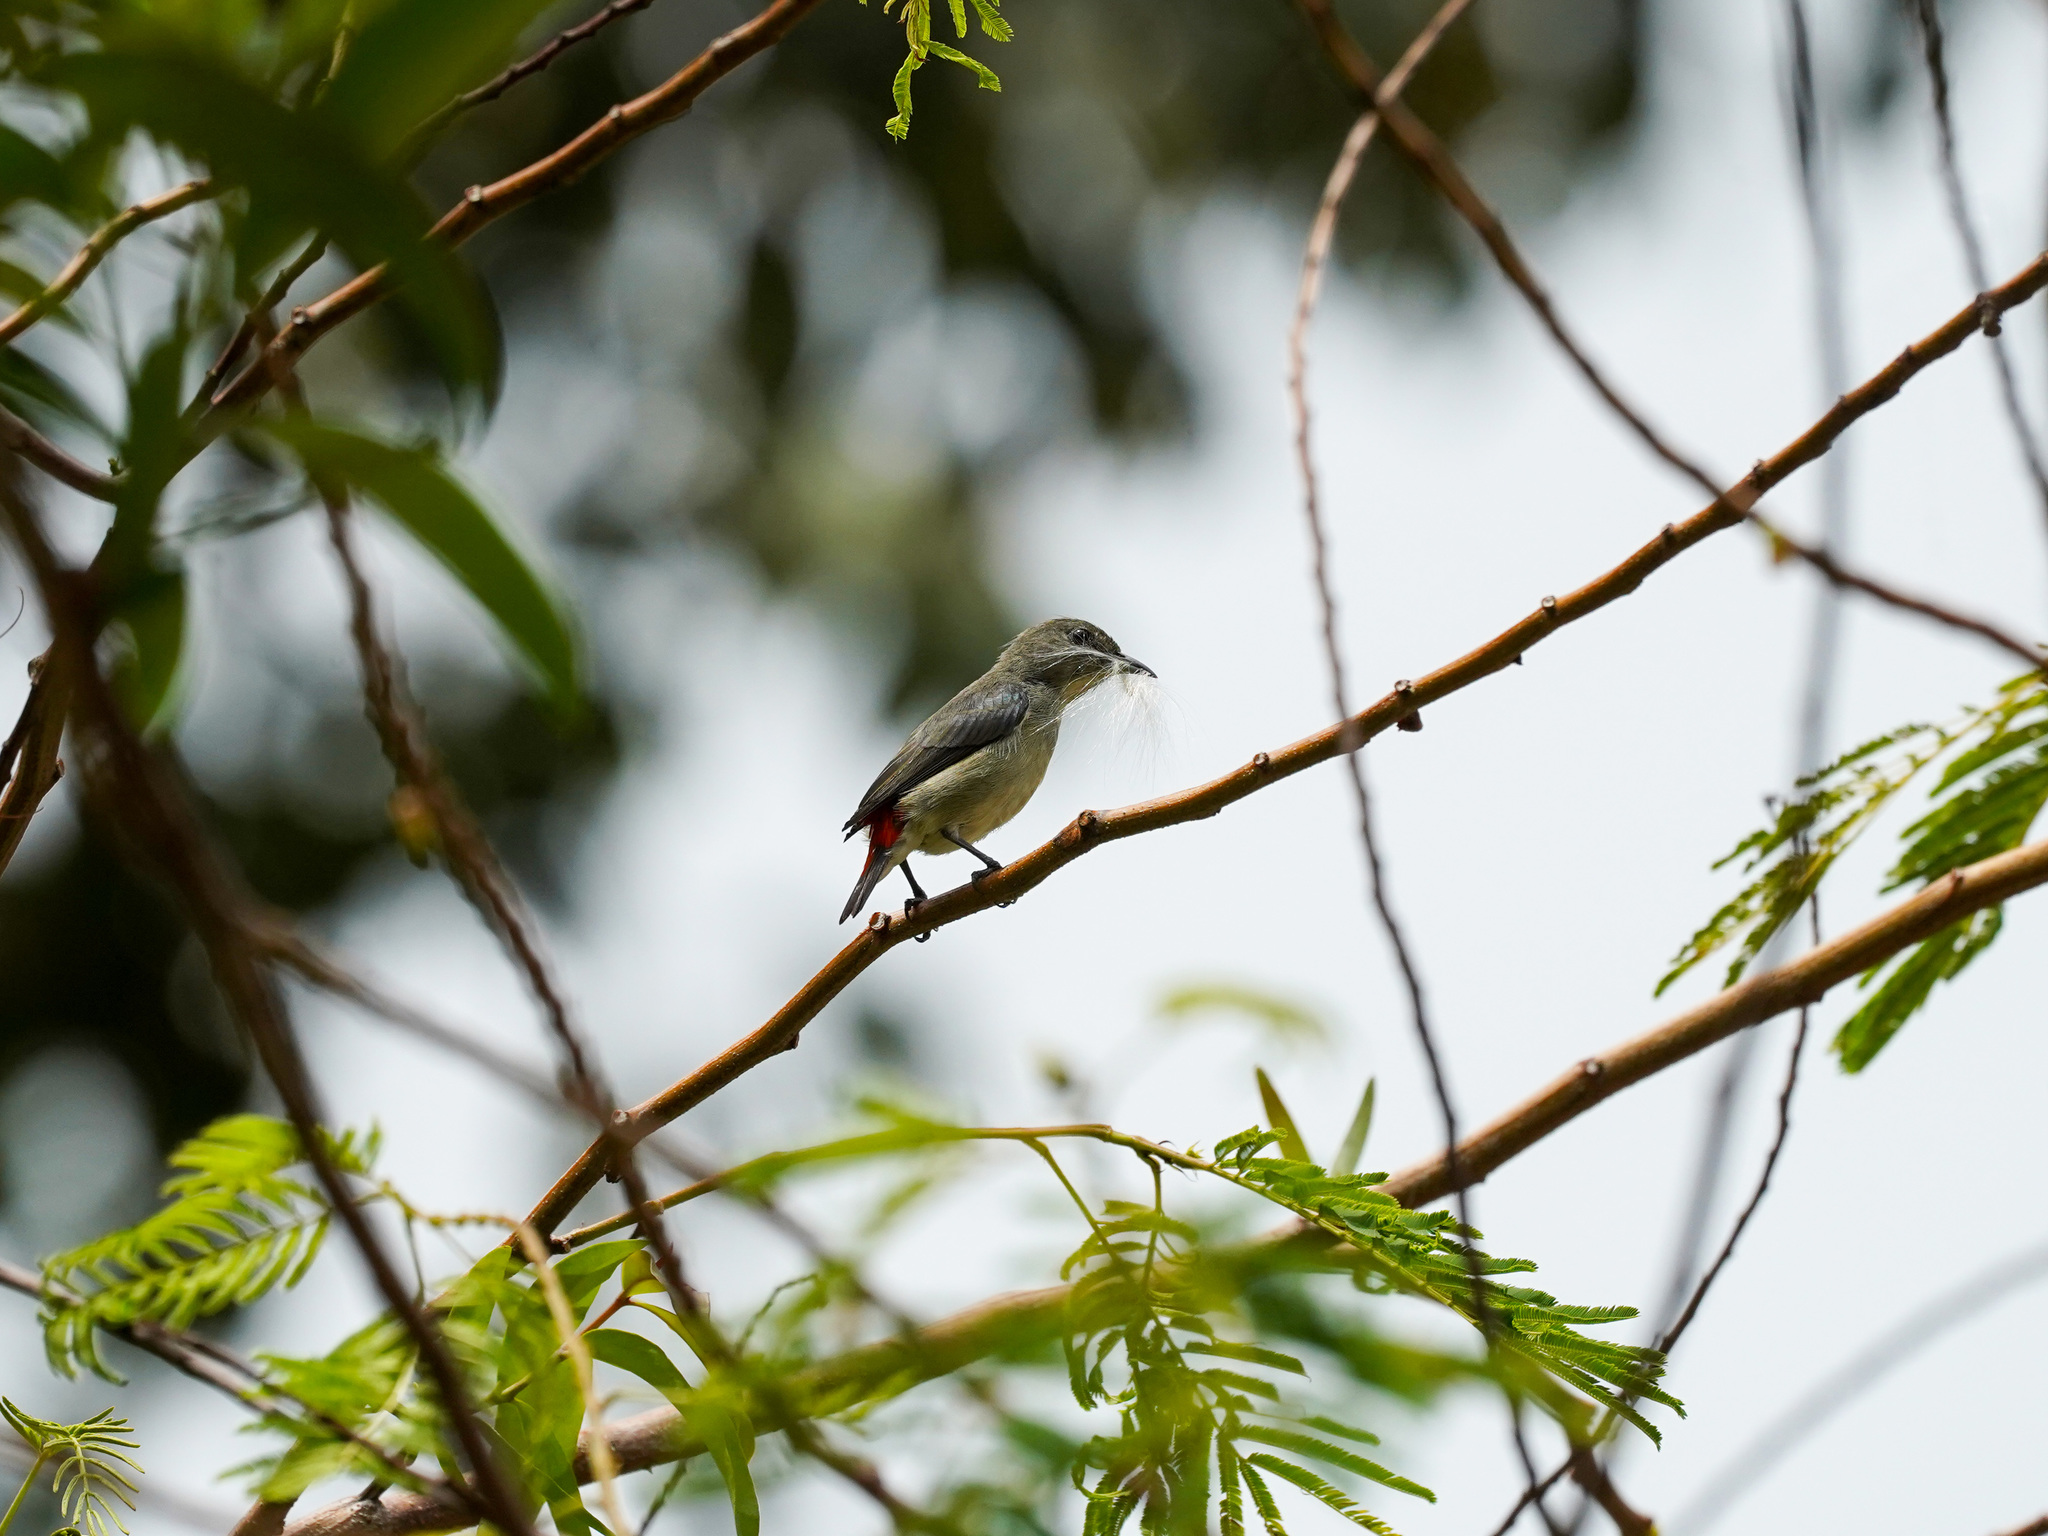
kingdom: Animalia
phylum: Chordata
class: Aves
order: Passeriformes
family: Dicaeidae
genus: Dicaeum
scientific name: Dicaeum cruentatum
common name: Scarlet-backed flowerpecker
